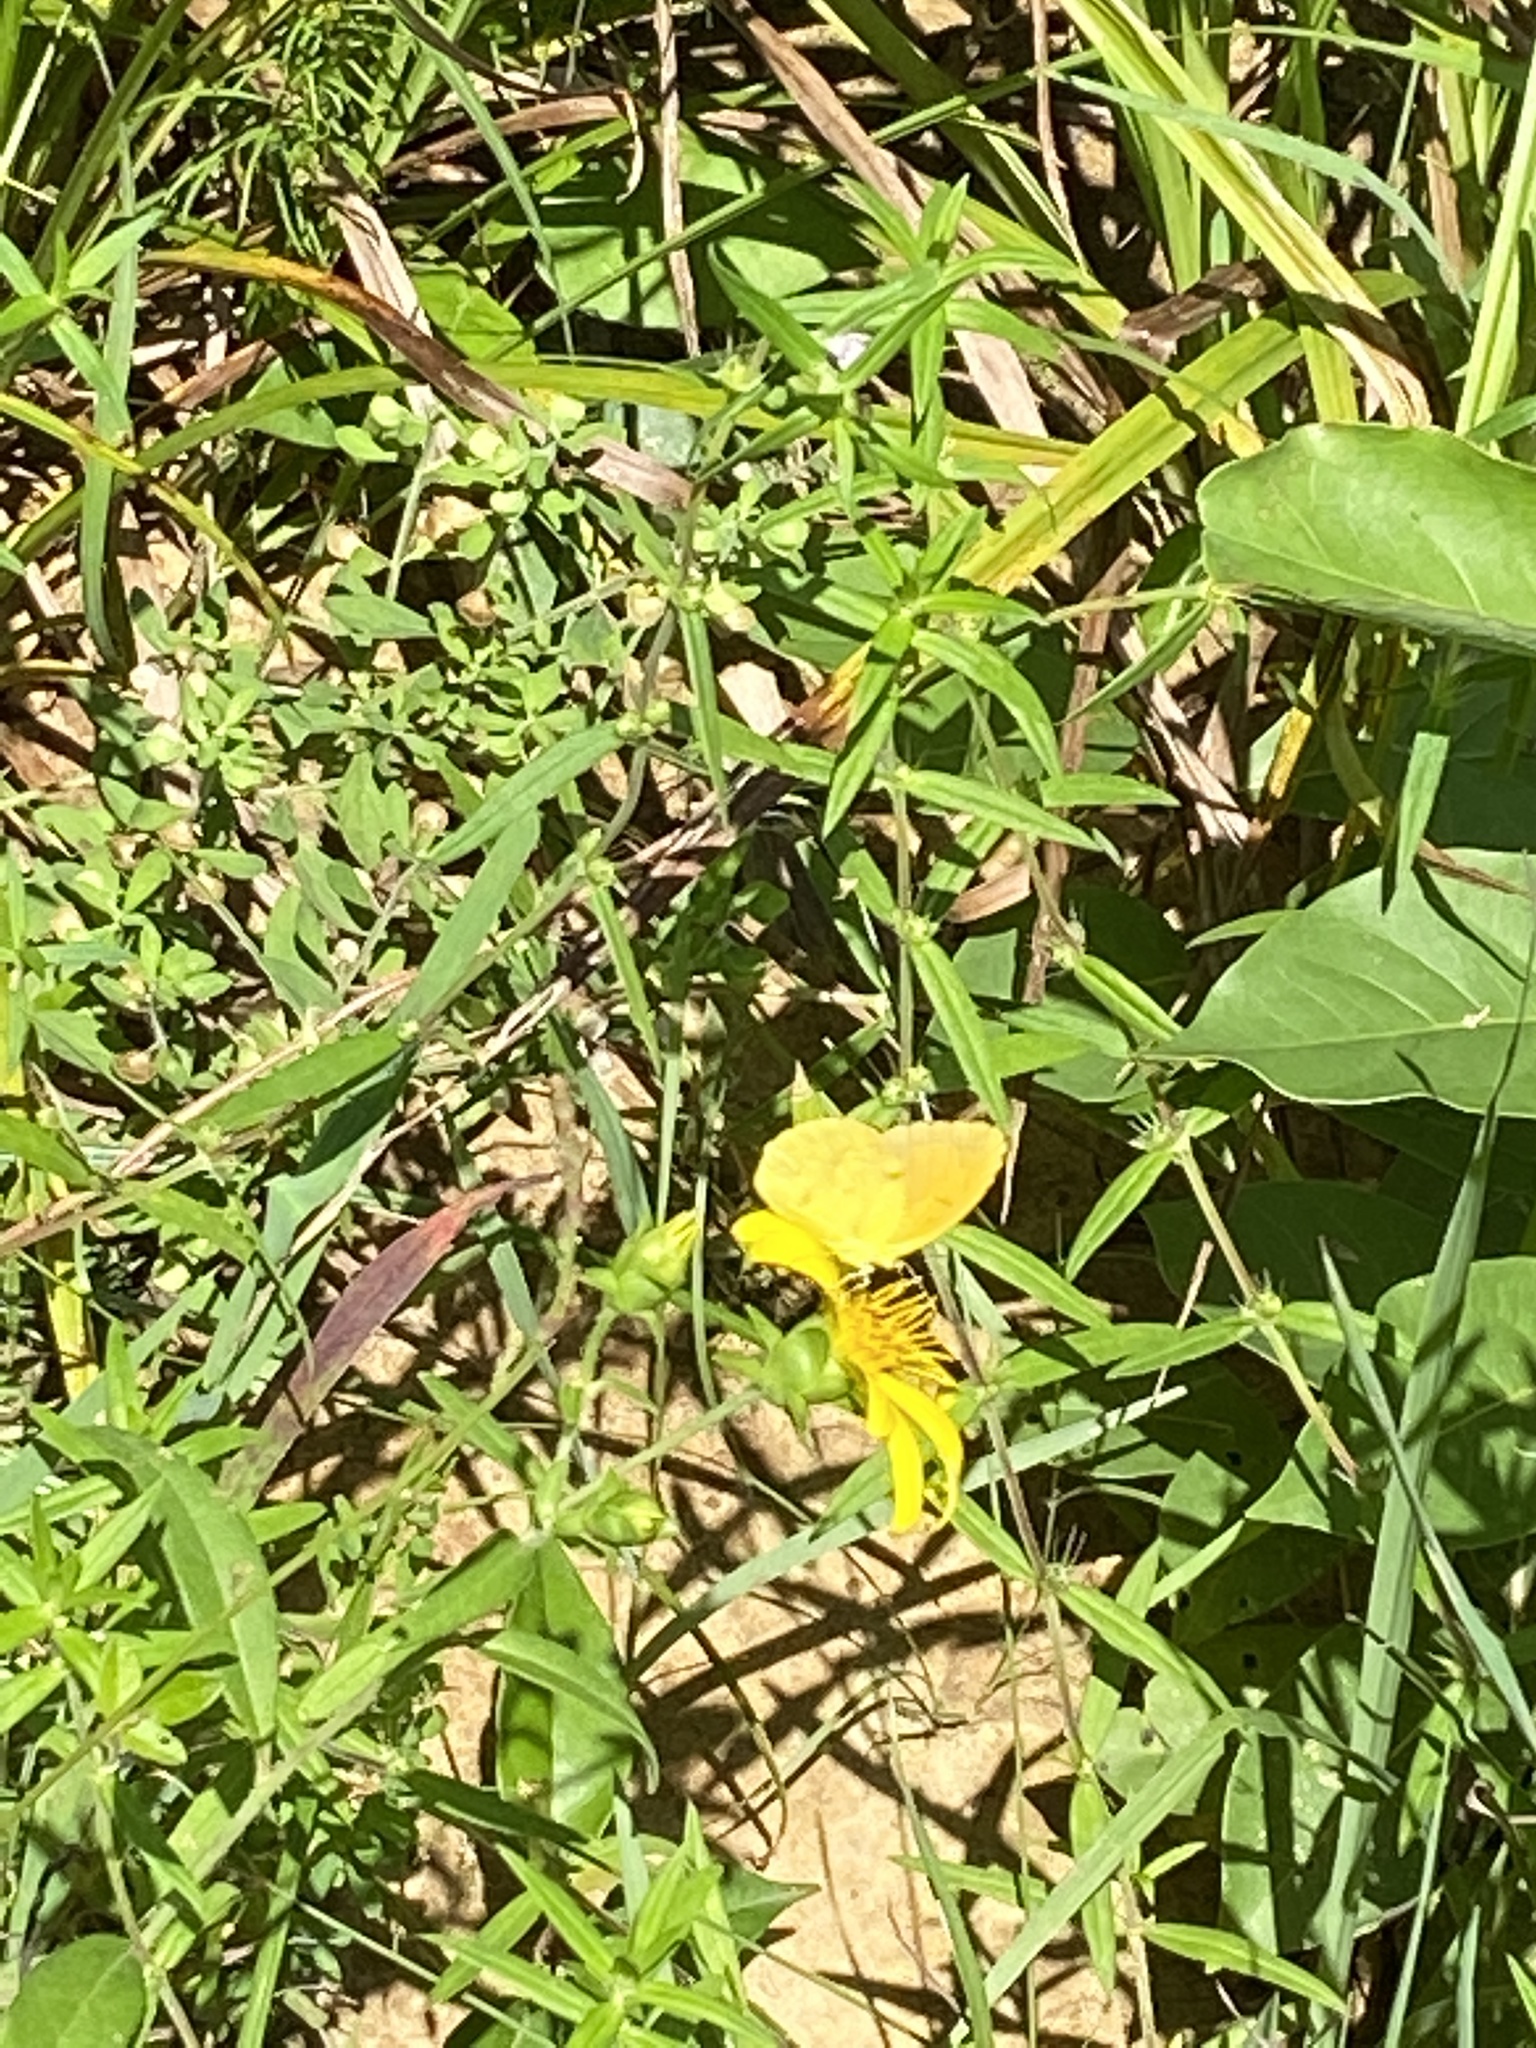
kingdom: Animalia
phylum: Arthropoda
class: Insecta
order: Lepidoptera
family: Pieridae
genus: Abaeis
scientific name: Abaeis nicippe
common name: Sleepy orange
